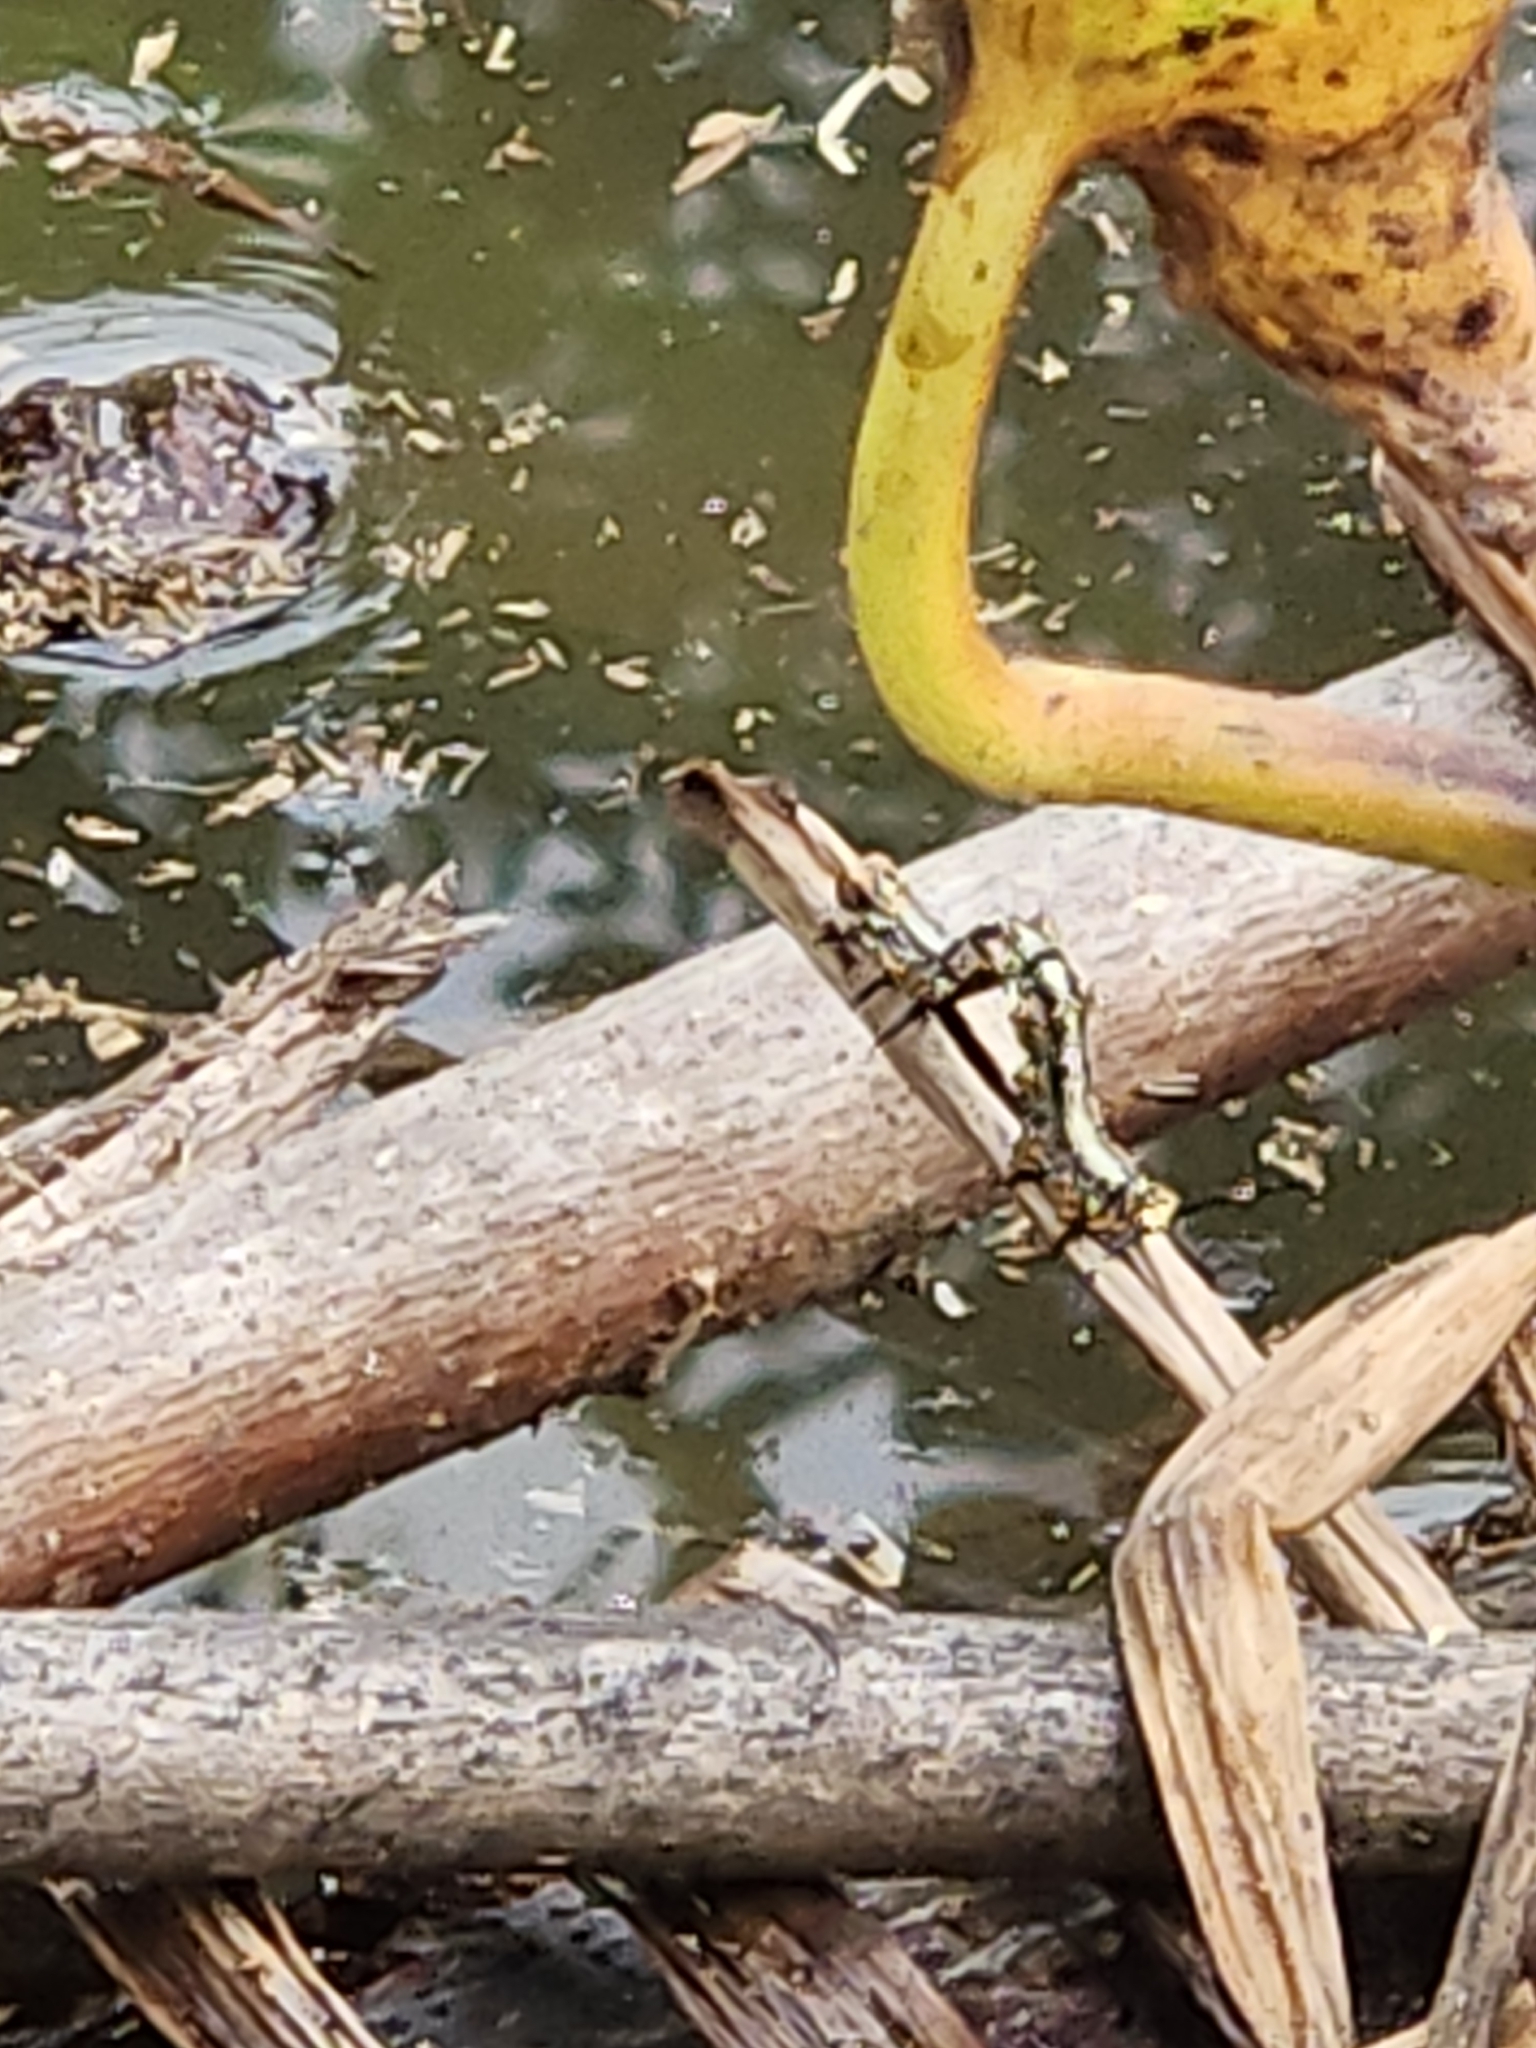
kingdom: Animalia
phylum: Arthropoda
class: Insecta
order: Lepidoptera
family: Erebidae
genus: Selenisa
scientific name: Selenisa sueroides
